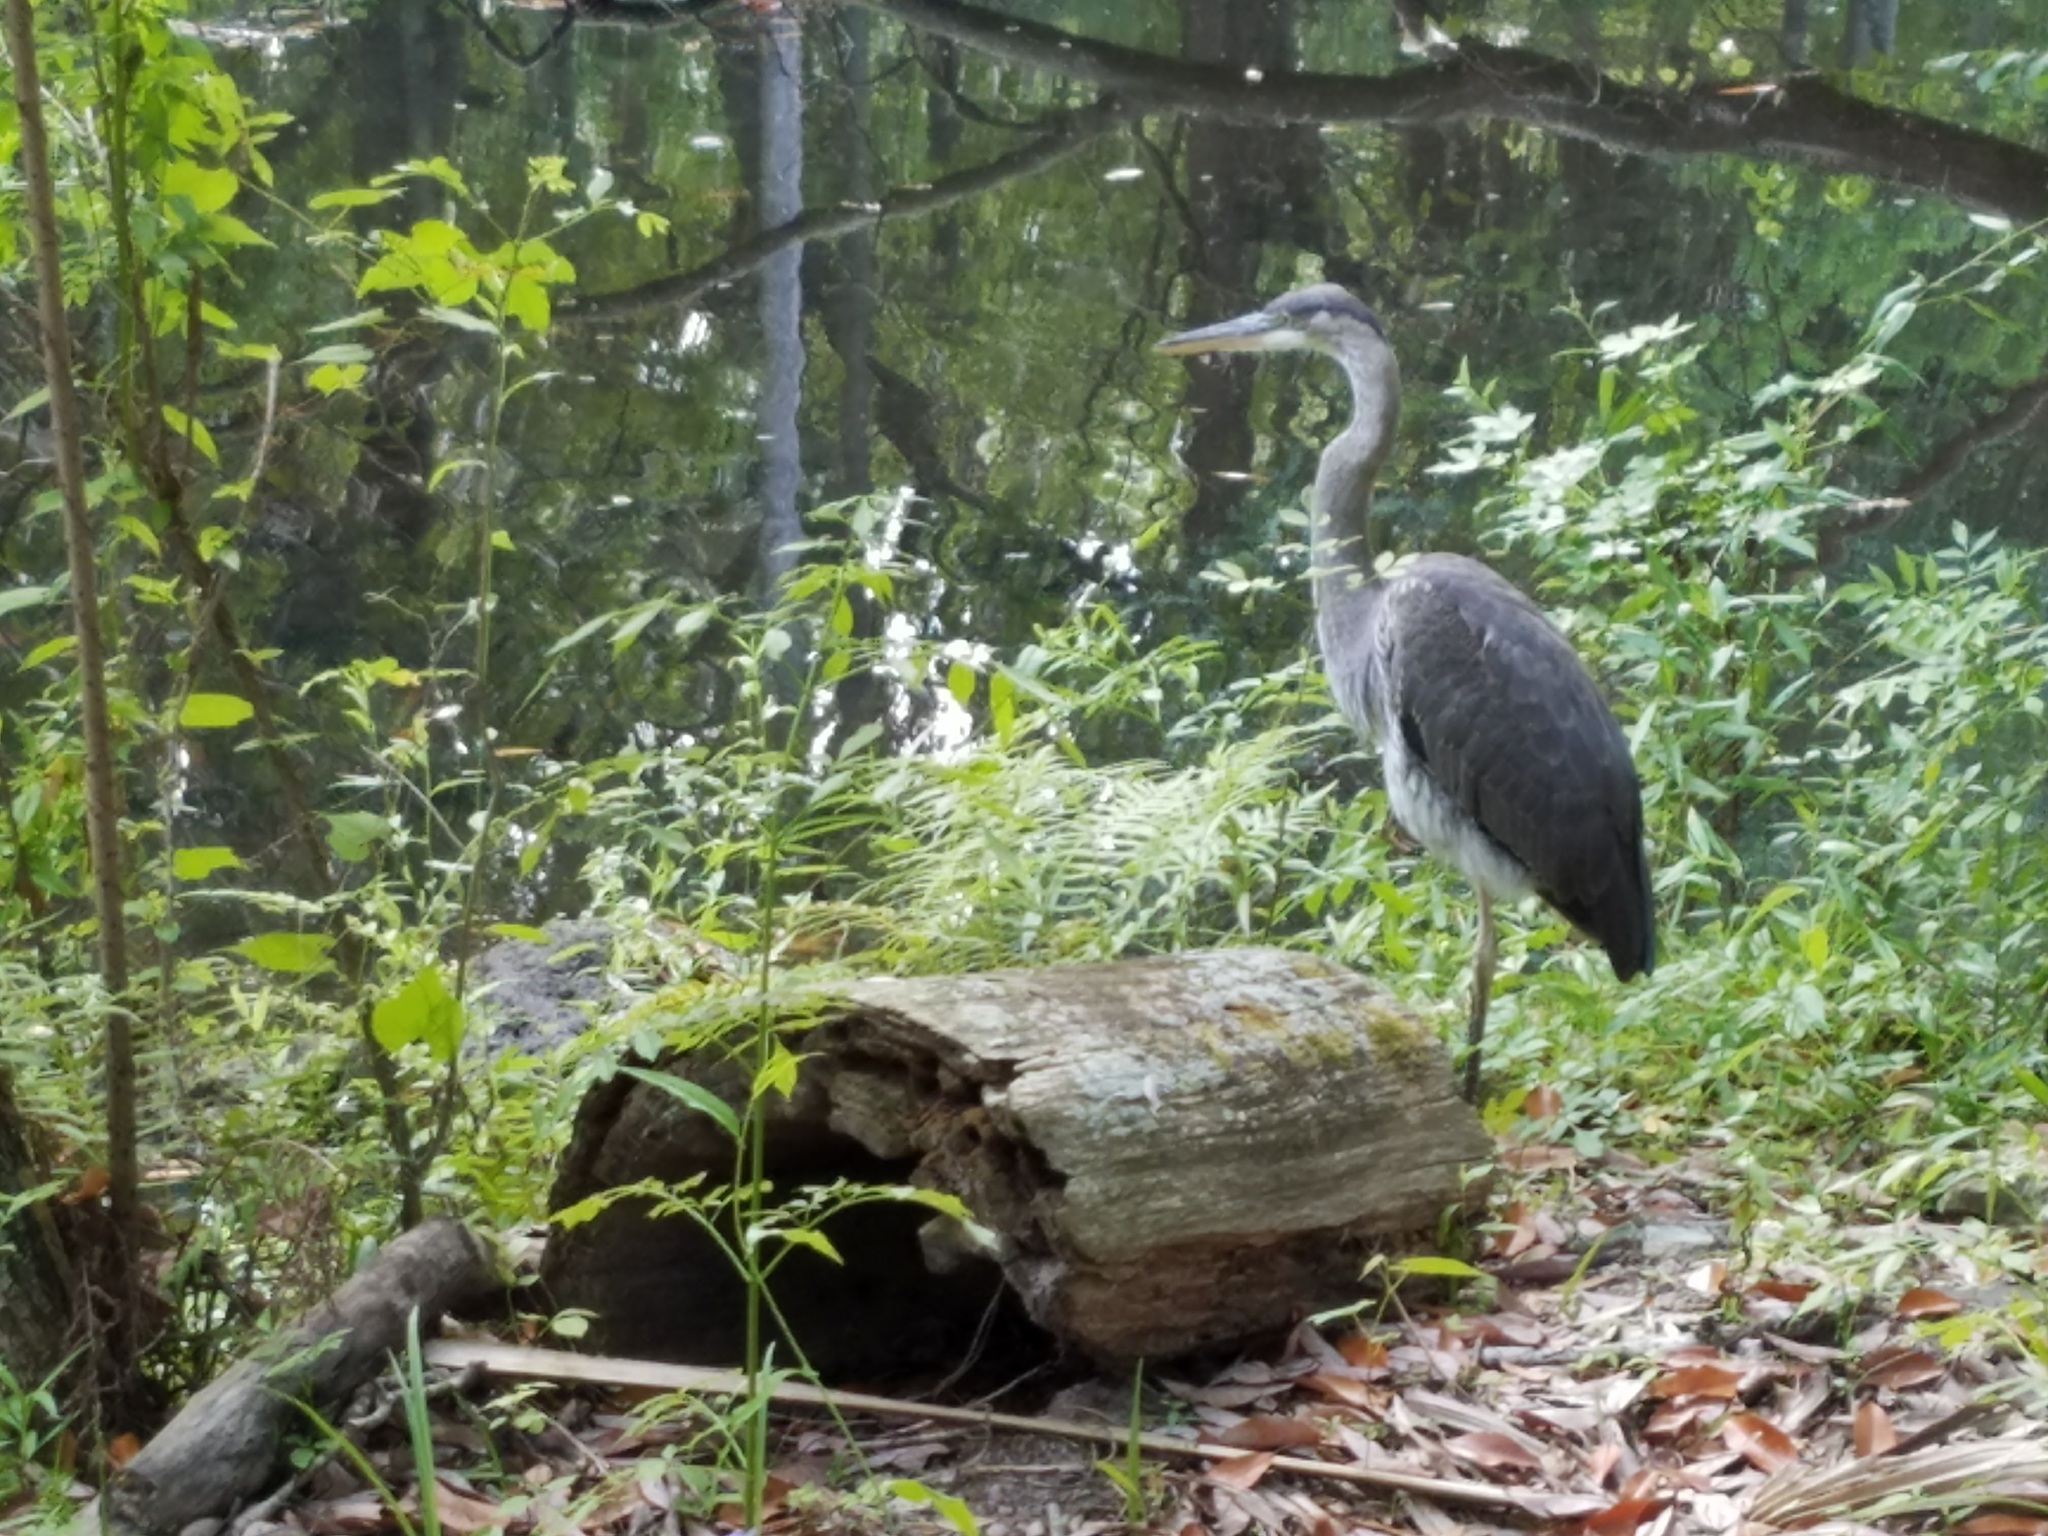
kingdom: Animalia
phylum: Chordata
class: Aves
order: Pelecaniformes
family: Ardeidae
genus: Ardea
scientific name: Ardea herodias
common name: Great blue heron
